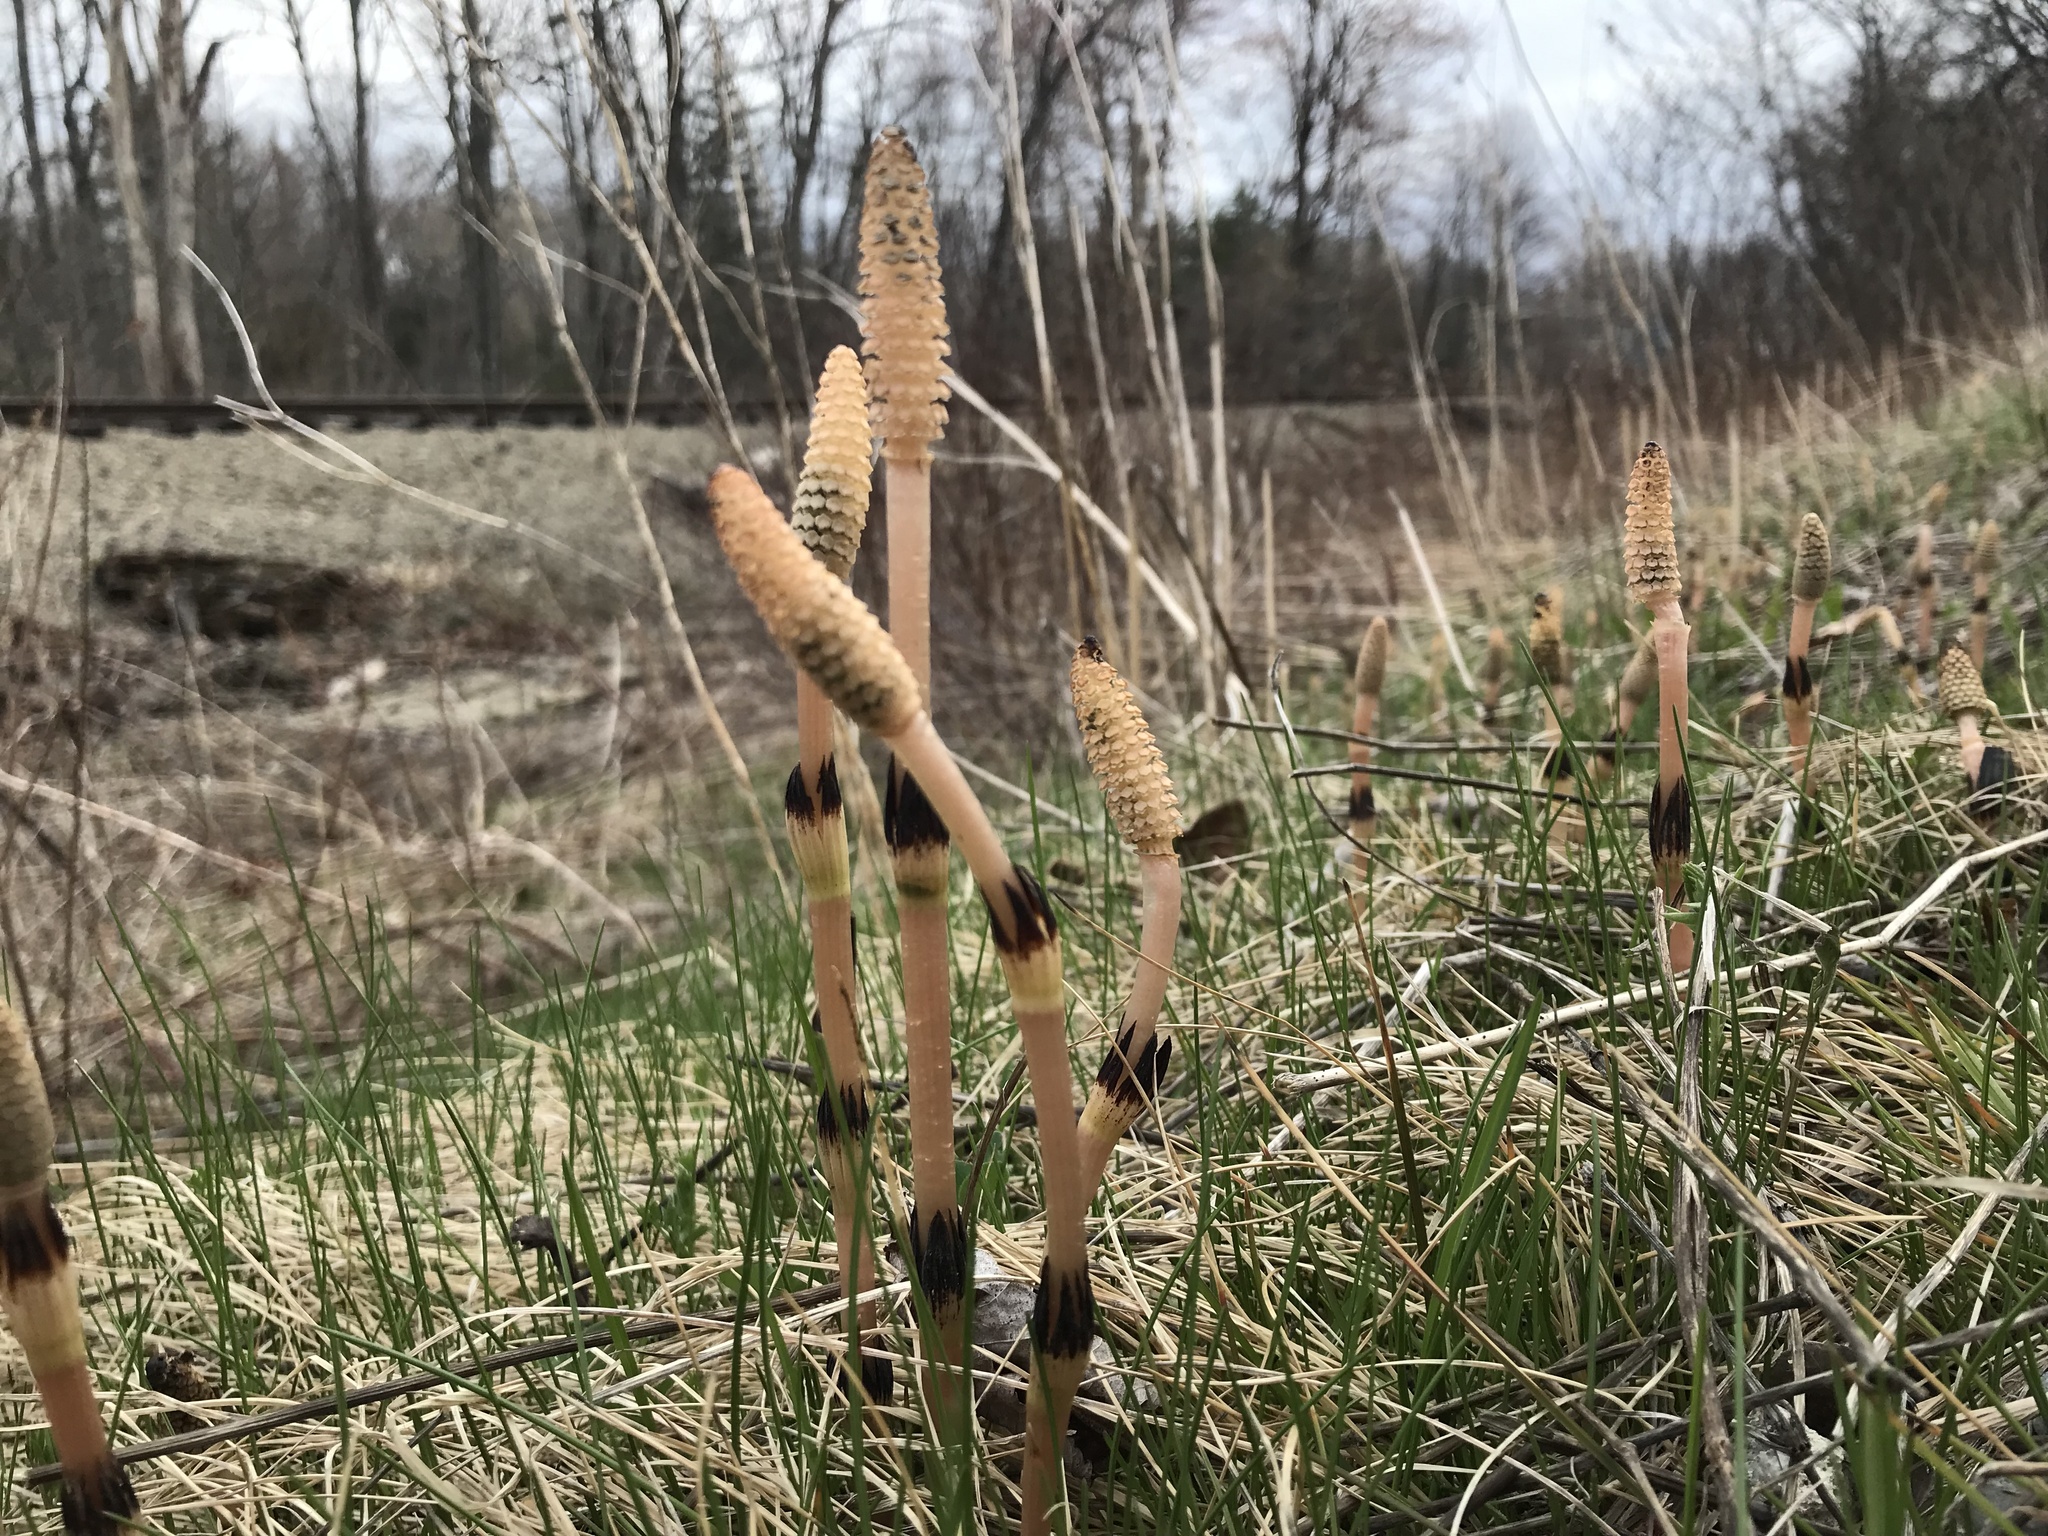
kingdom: Plantae
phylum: Tracheophyta
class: Polypodiopsida
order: Equisetales
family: Equisetaceae
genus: Equisetum
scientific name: Equisetum arvense
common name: Field horsetail
